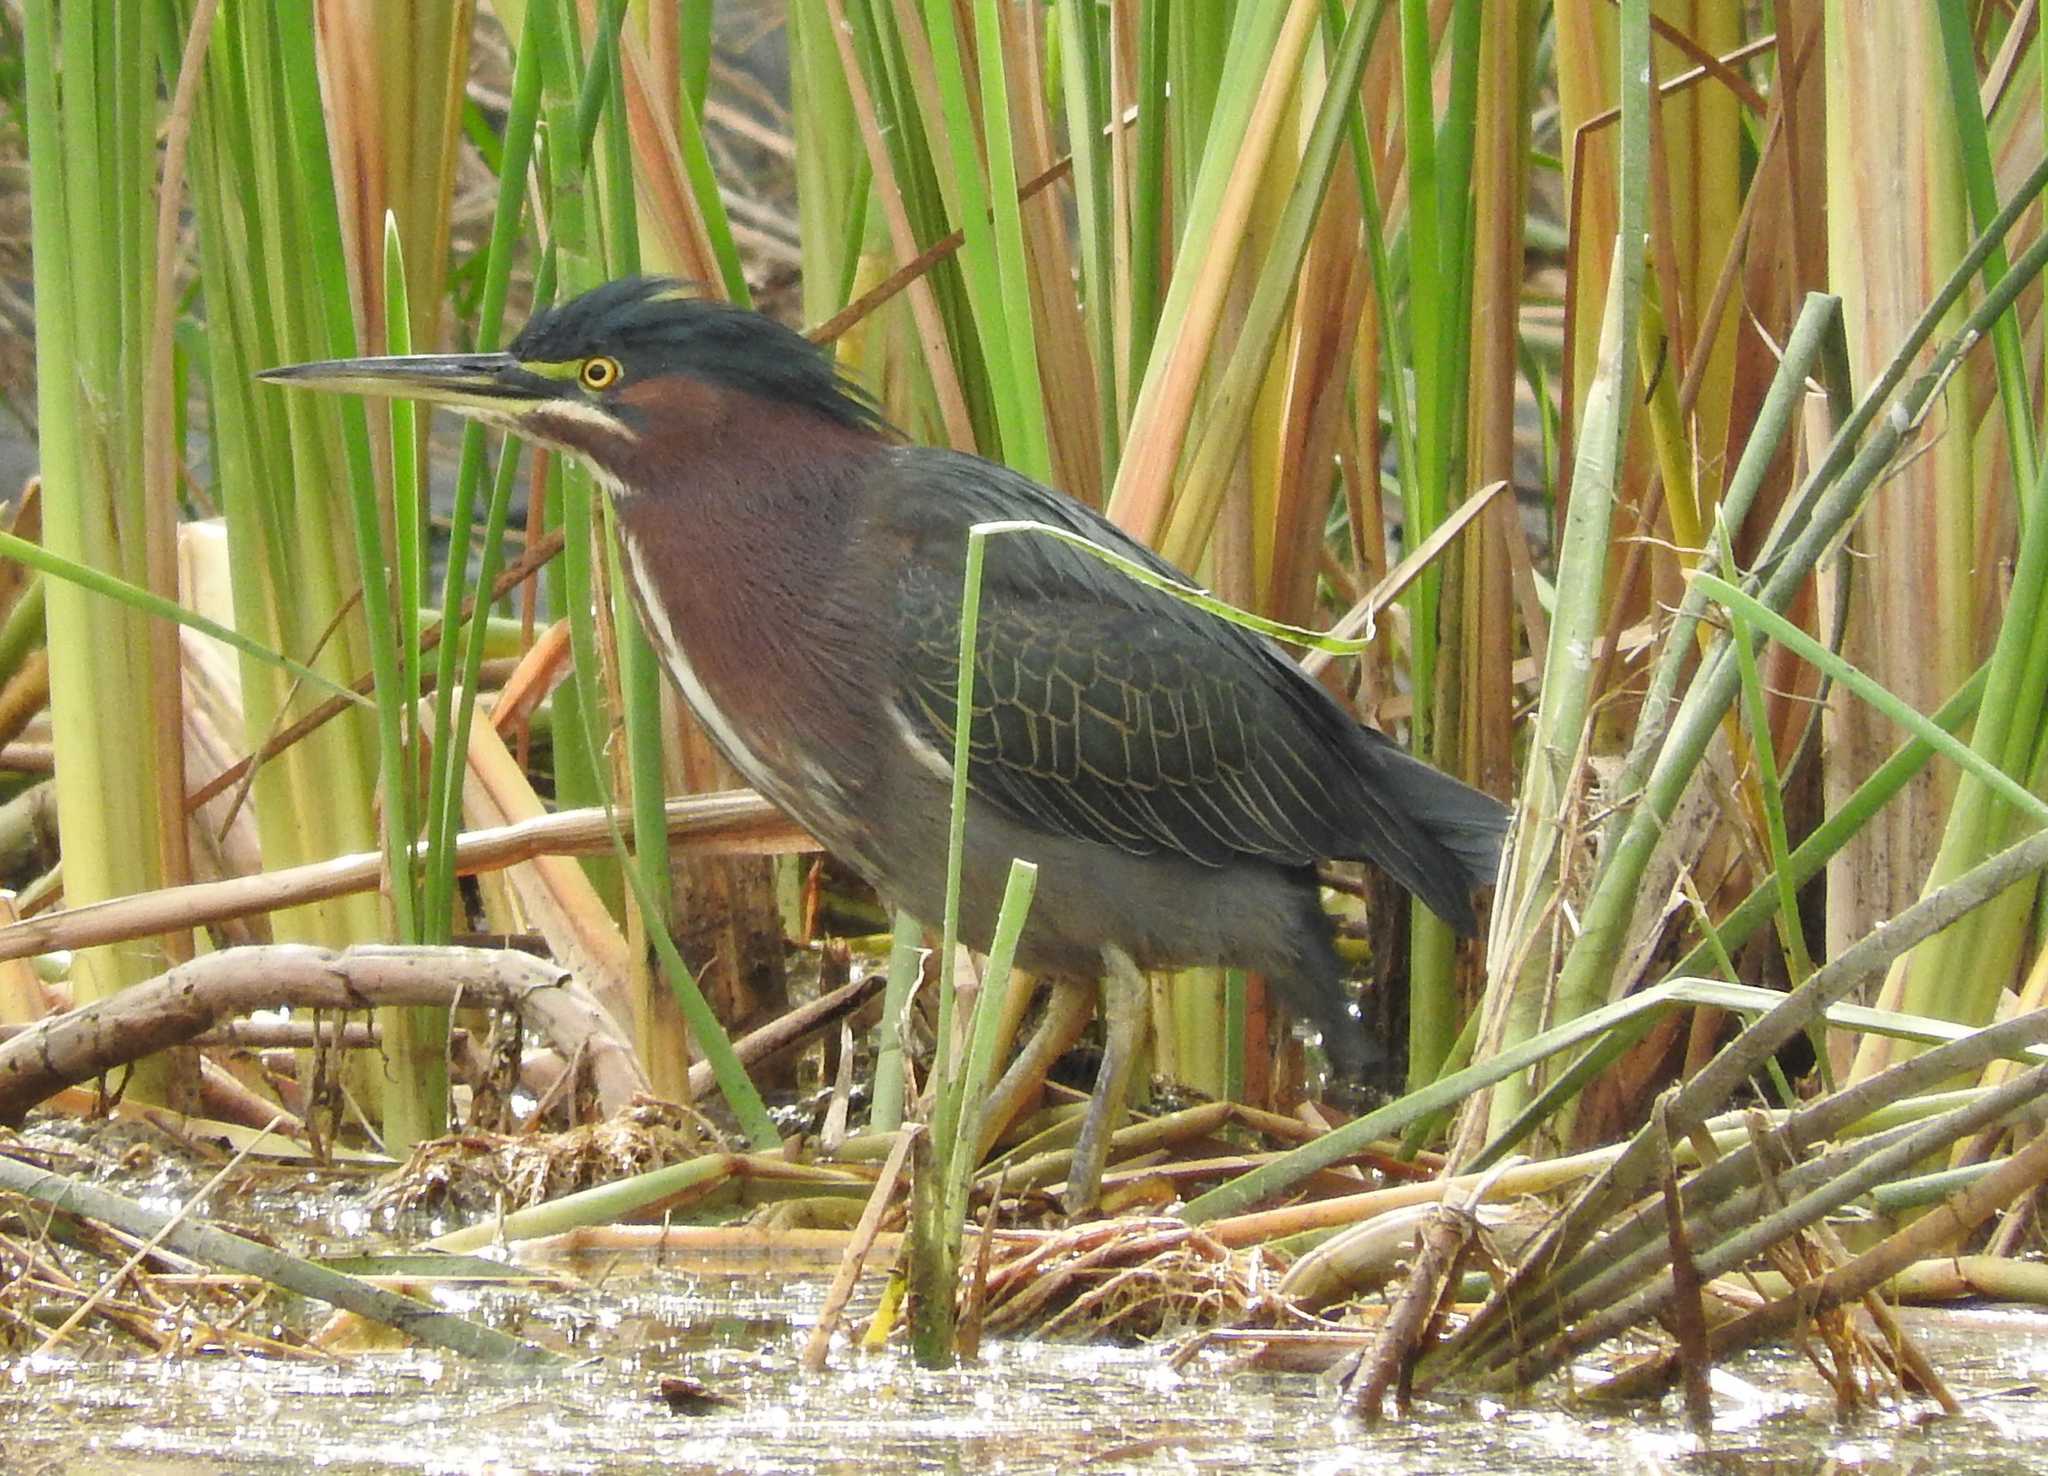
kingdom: Animalia
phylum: Chordata
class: Aves
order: Pelecaniformes
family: Ardeidae
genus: Butorides
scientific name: Butorides virescens
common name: Green heron
